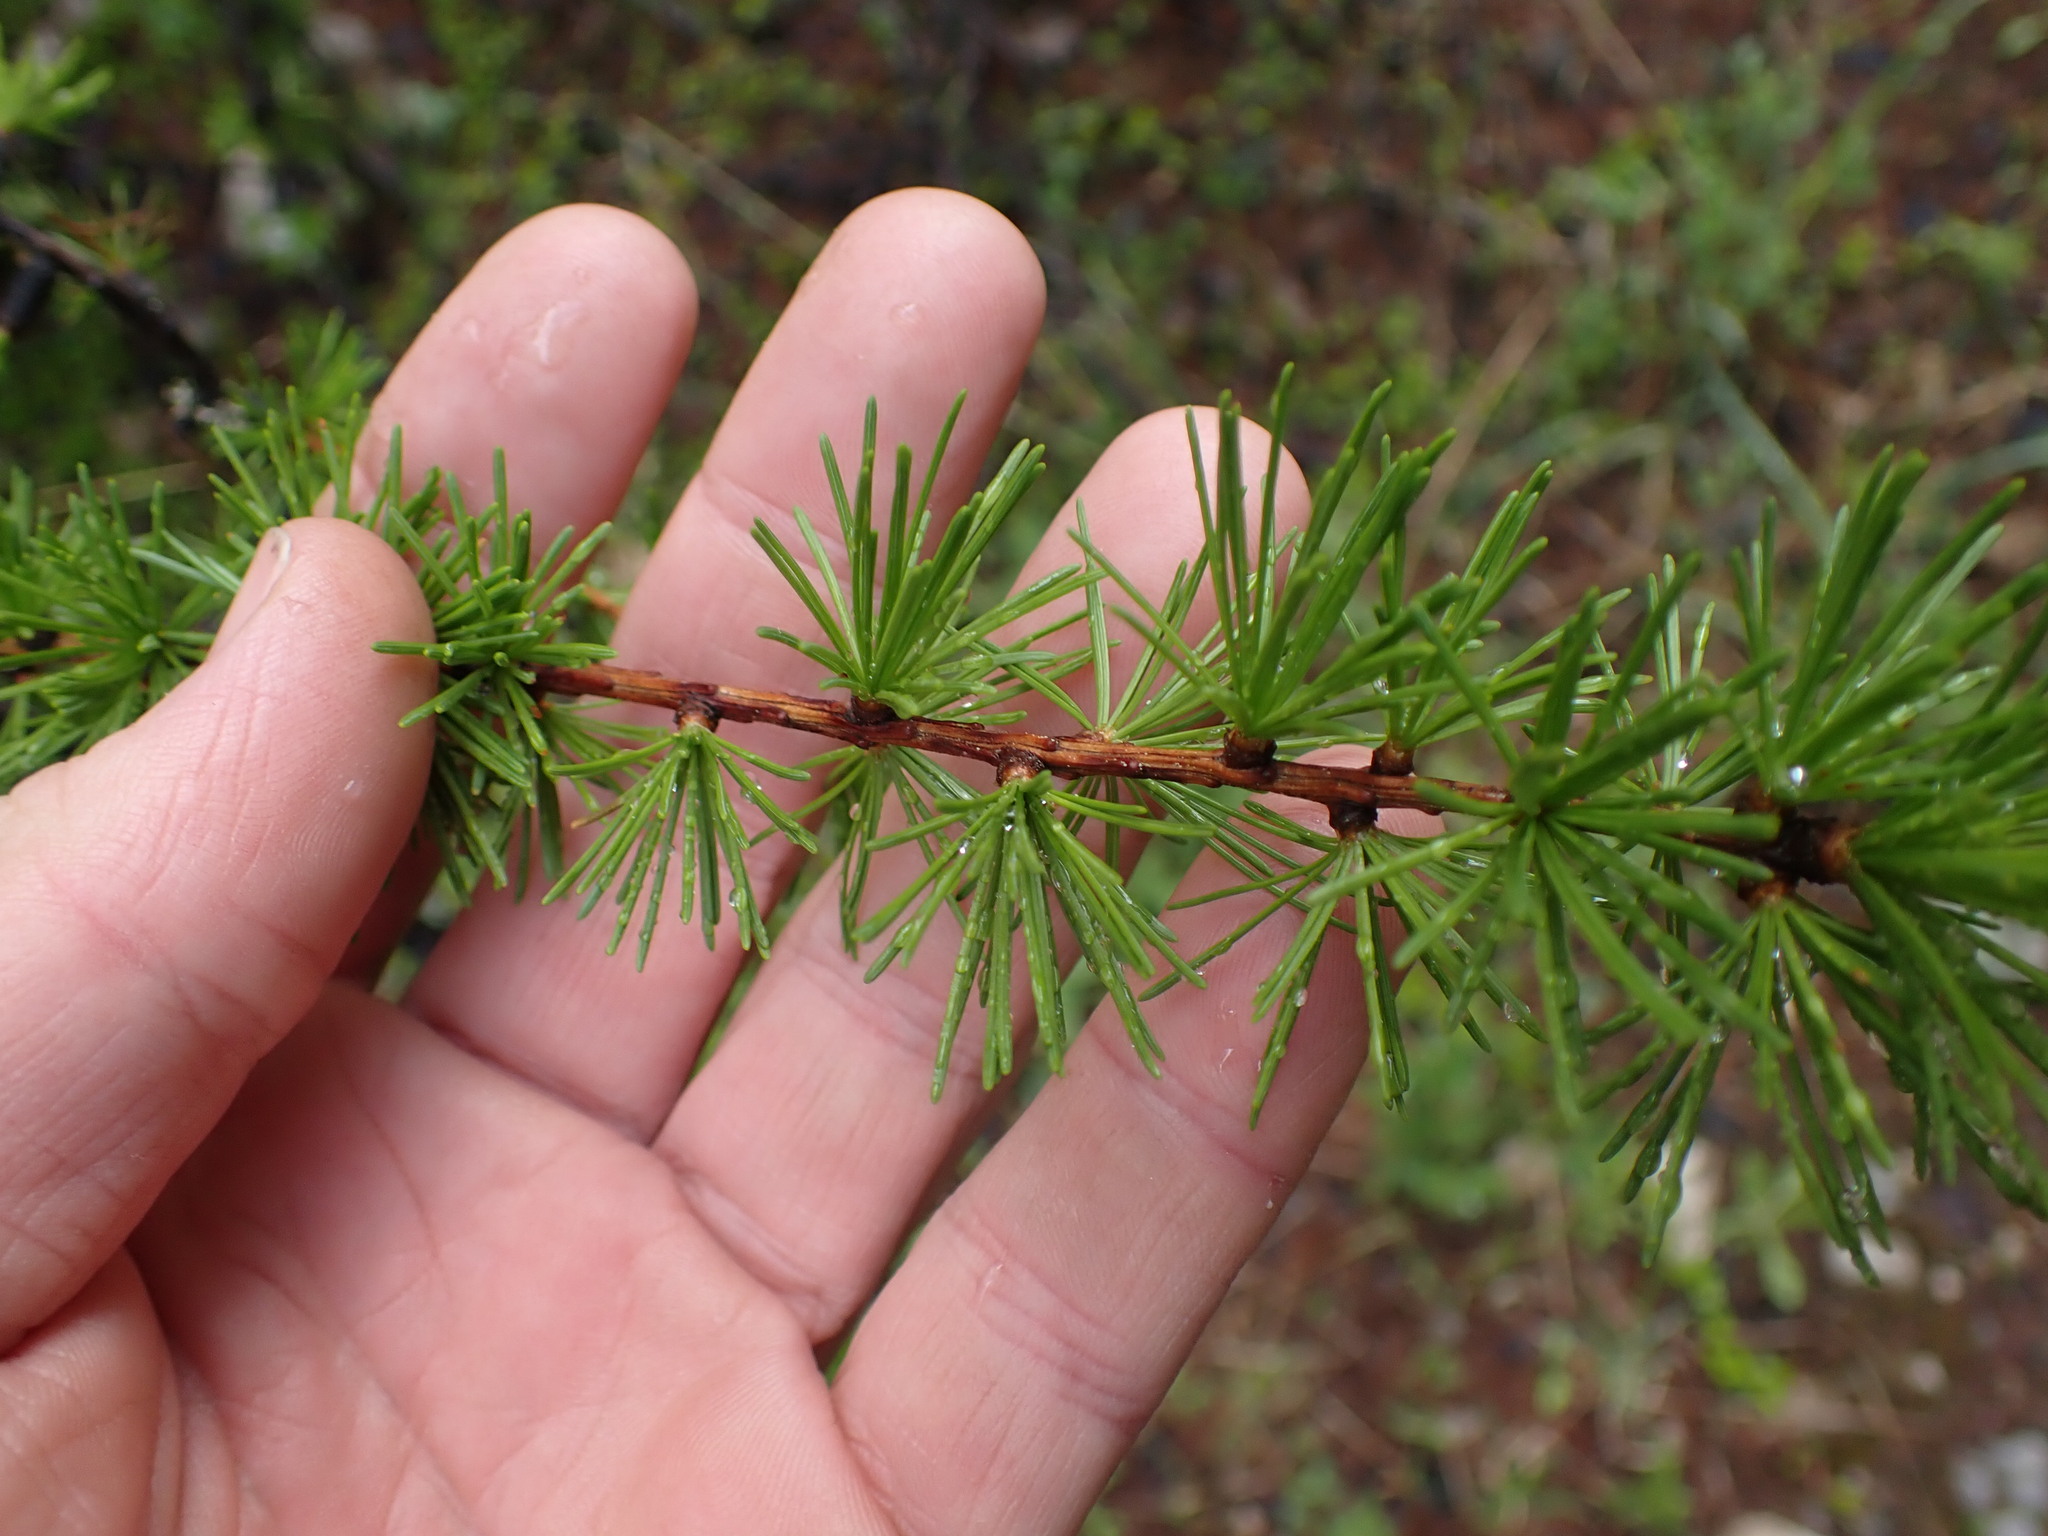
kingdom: Plantae
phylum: Tracheophyta
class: Pinopsida
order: Pinales
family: Pinaceae
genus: Larix
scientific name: Larix occidentalis
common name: Western larch
